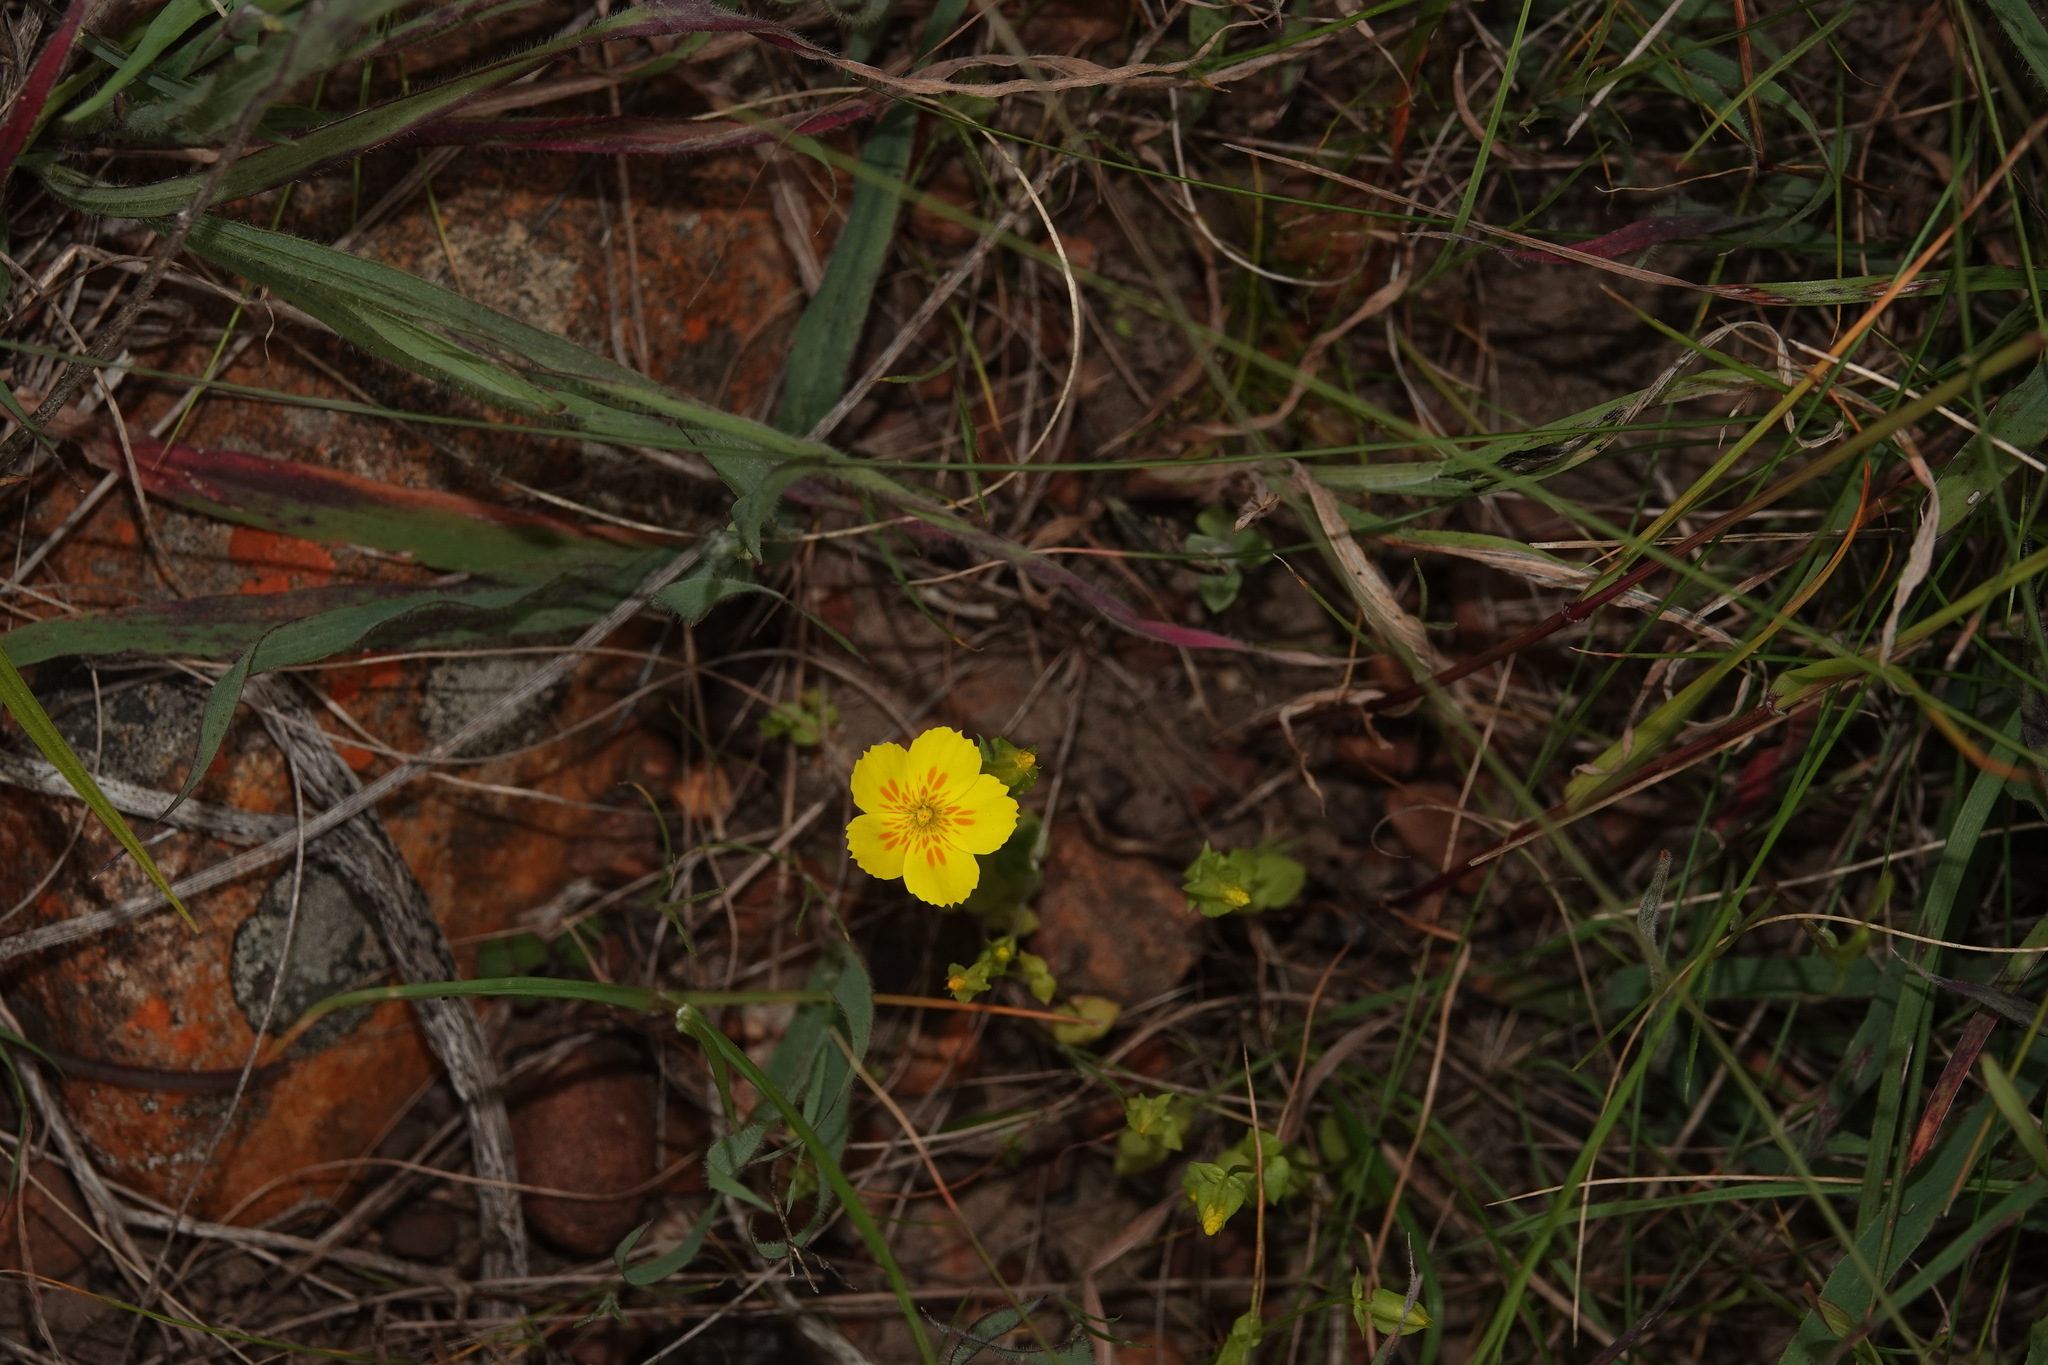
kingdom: Plantae
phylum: Tracheophyta
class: Magnoliopsida
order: Gentianales
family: Gentianaceae
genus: Sebaea
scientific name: Sebaea solaris
